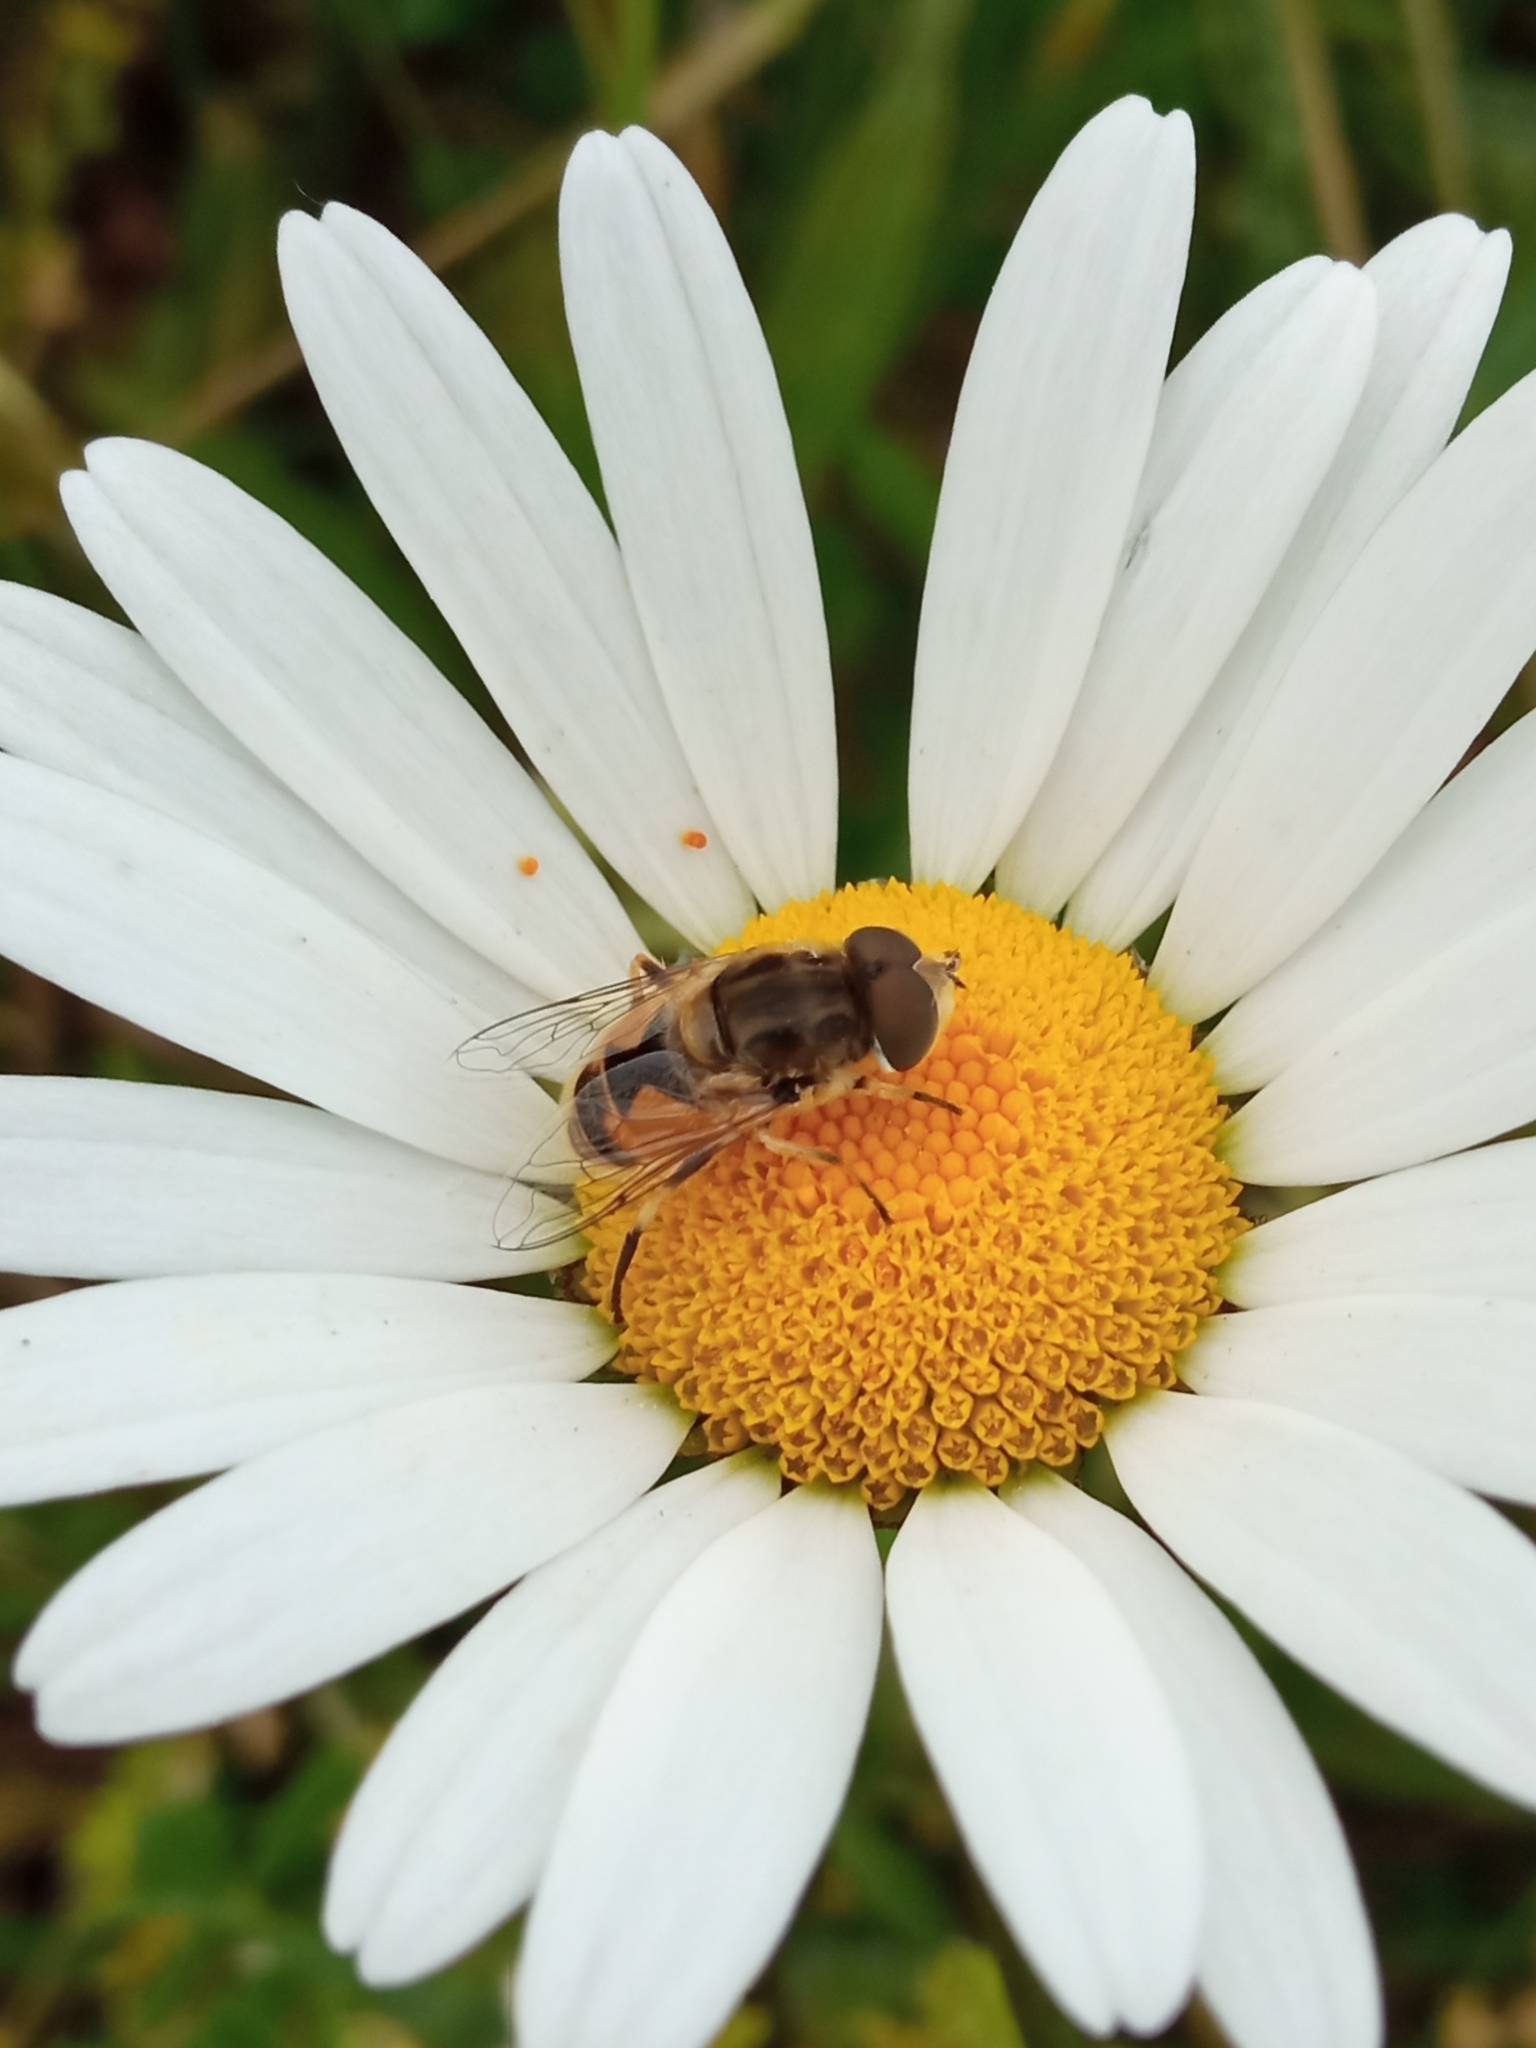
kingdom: Animalia
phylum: Arthropoda
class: Insecta
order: Diptera
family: Syrphidae
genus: Eristalis
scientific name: Eristalis arbustorum
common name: Hover fly
